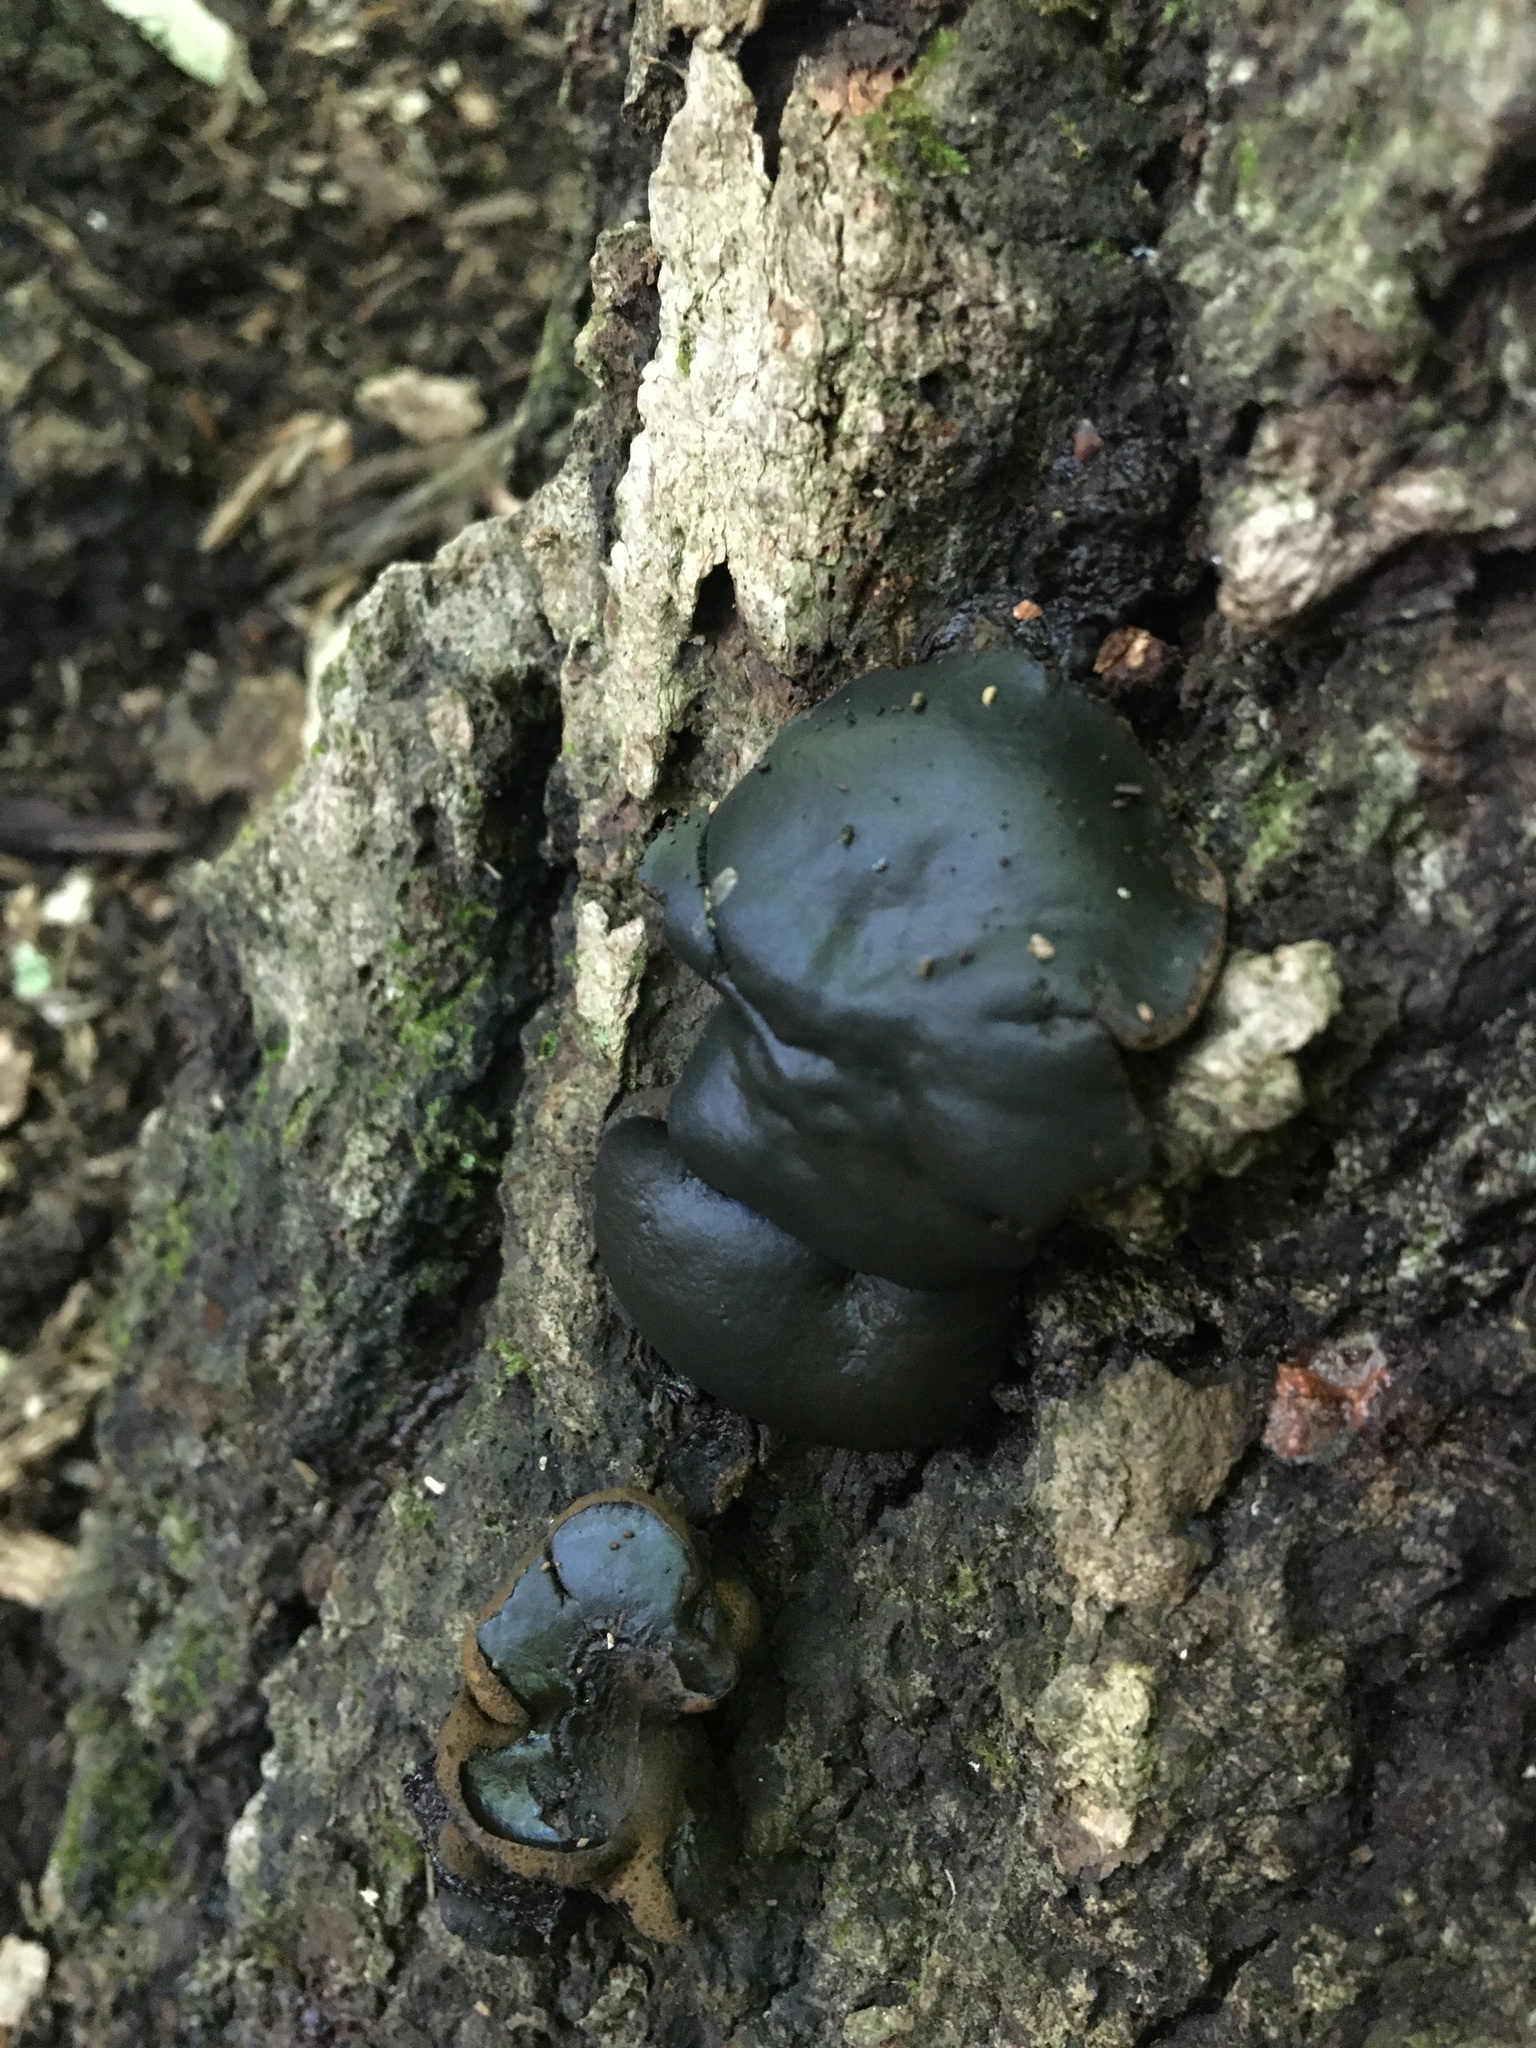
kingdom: Fungi
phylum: Ascomycota
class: Leotiomycetes
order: Phacidiales
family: Phacidiaceae
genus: Bulgaria
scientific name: Bulgaria inquinans
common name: Black bulgar
